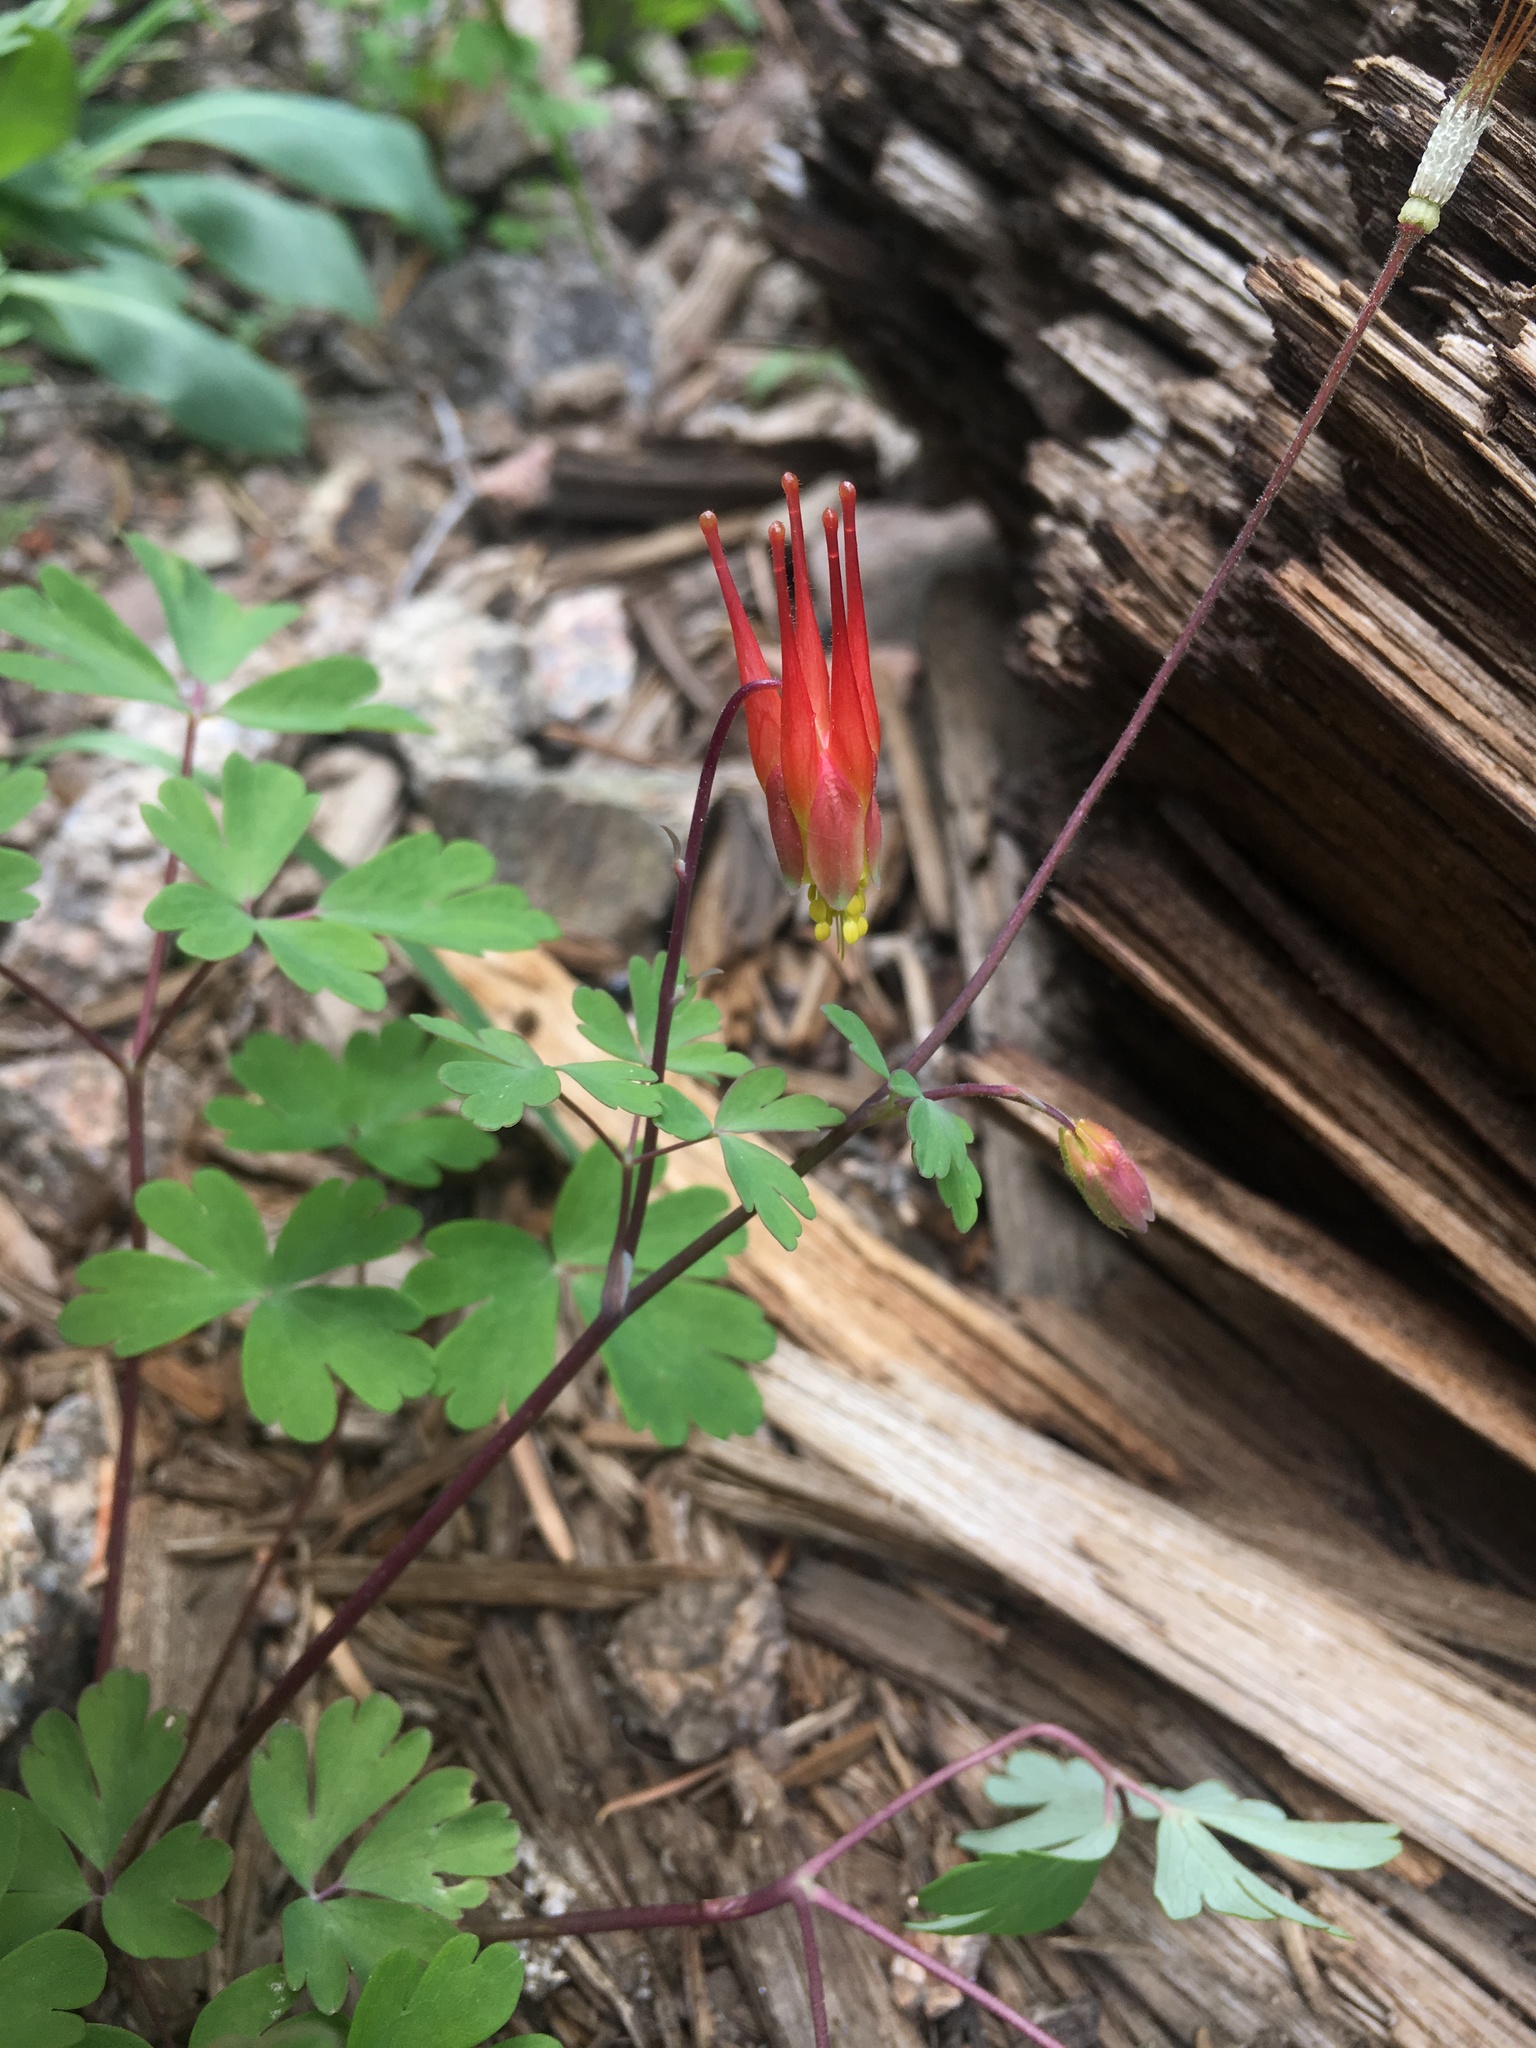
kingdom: Plantae
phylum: Tracheophyta
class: Magnoliopsida
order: Ranunculales
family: Ranunculaceae
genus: Aquilegia
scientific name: Aquilegia elegantula
